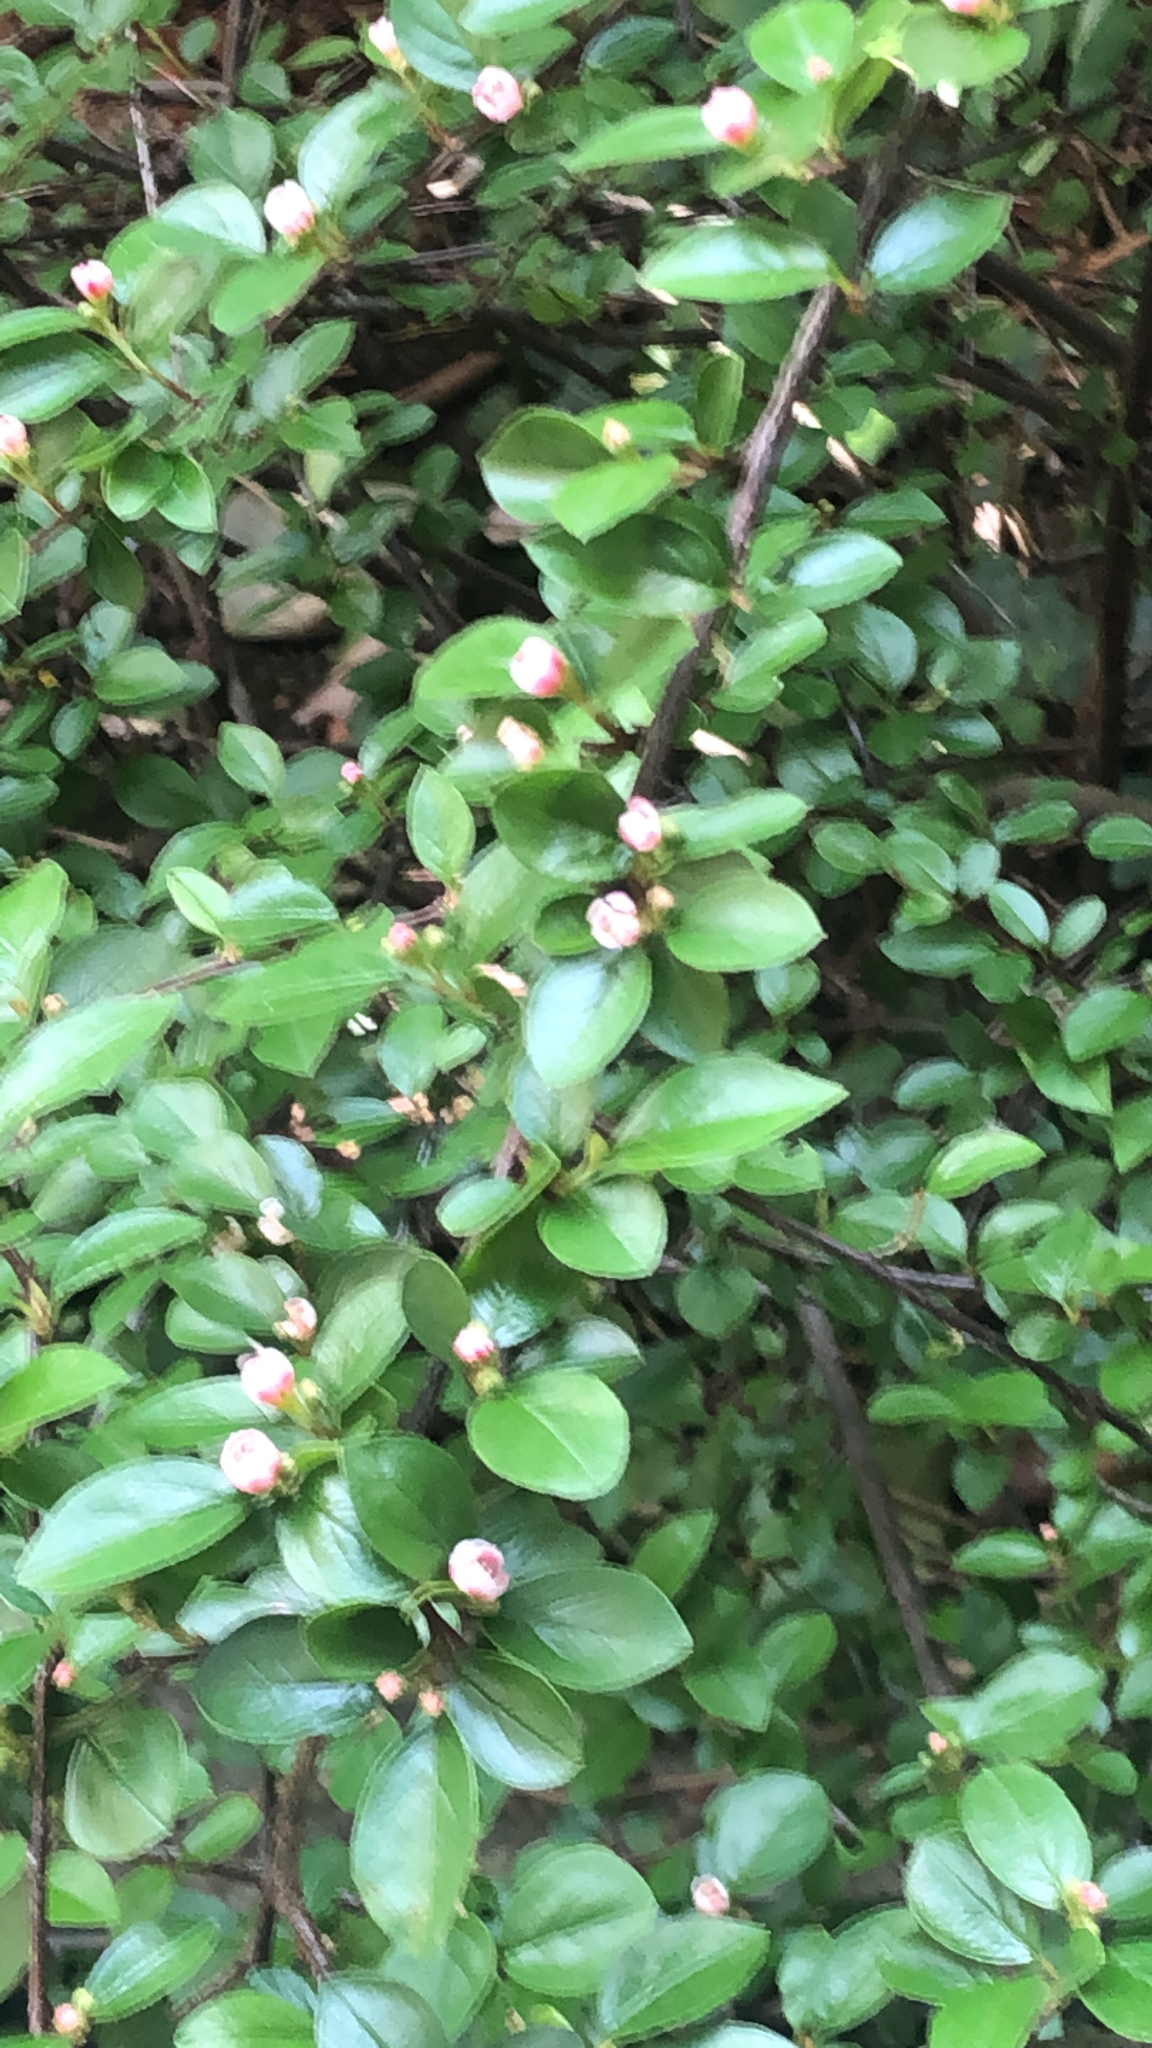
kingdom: Plantae
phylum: Tracheophyta
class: Magnoliopsida
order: Rosales
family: Rosaceae
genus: Cotoneaster
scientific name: Cotoneaster divaricatus
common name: Spreading cotoneaster
